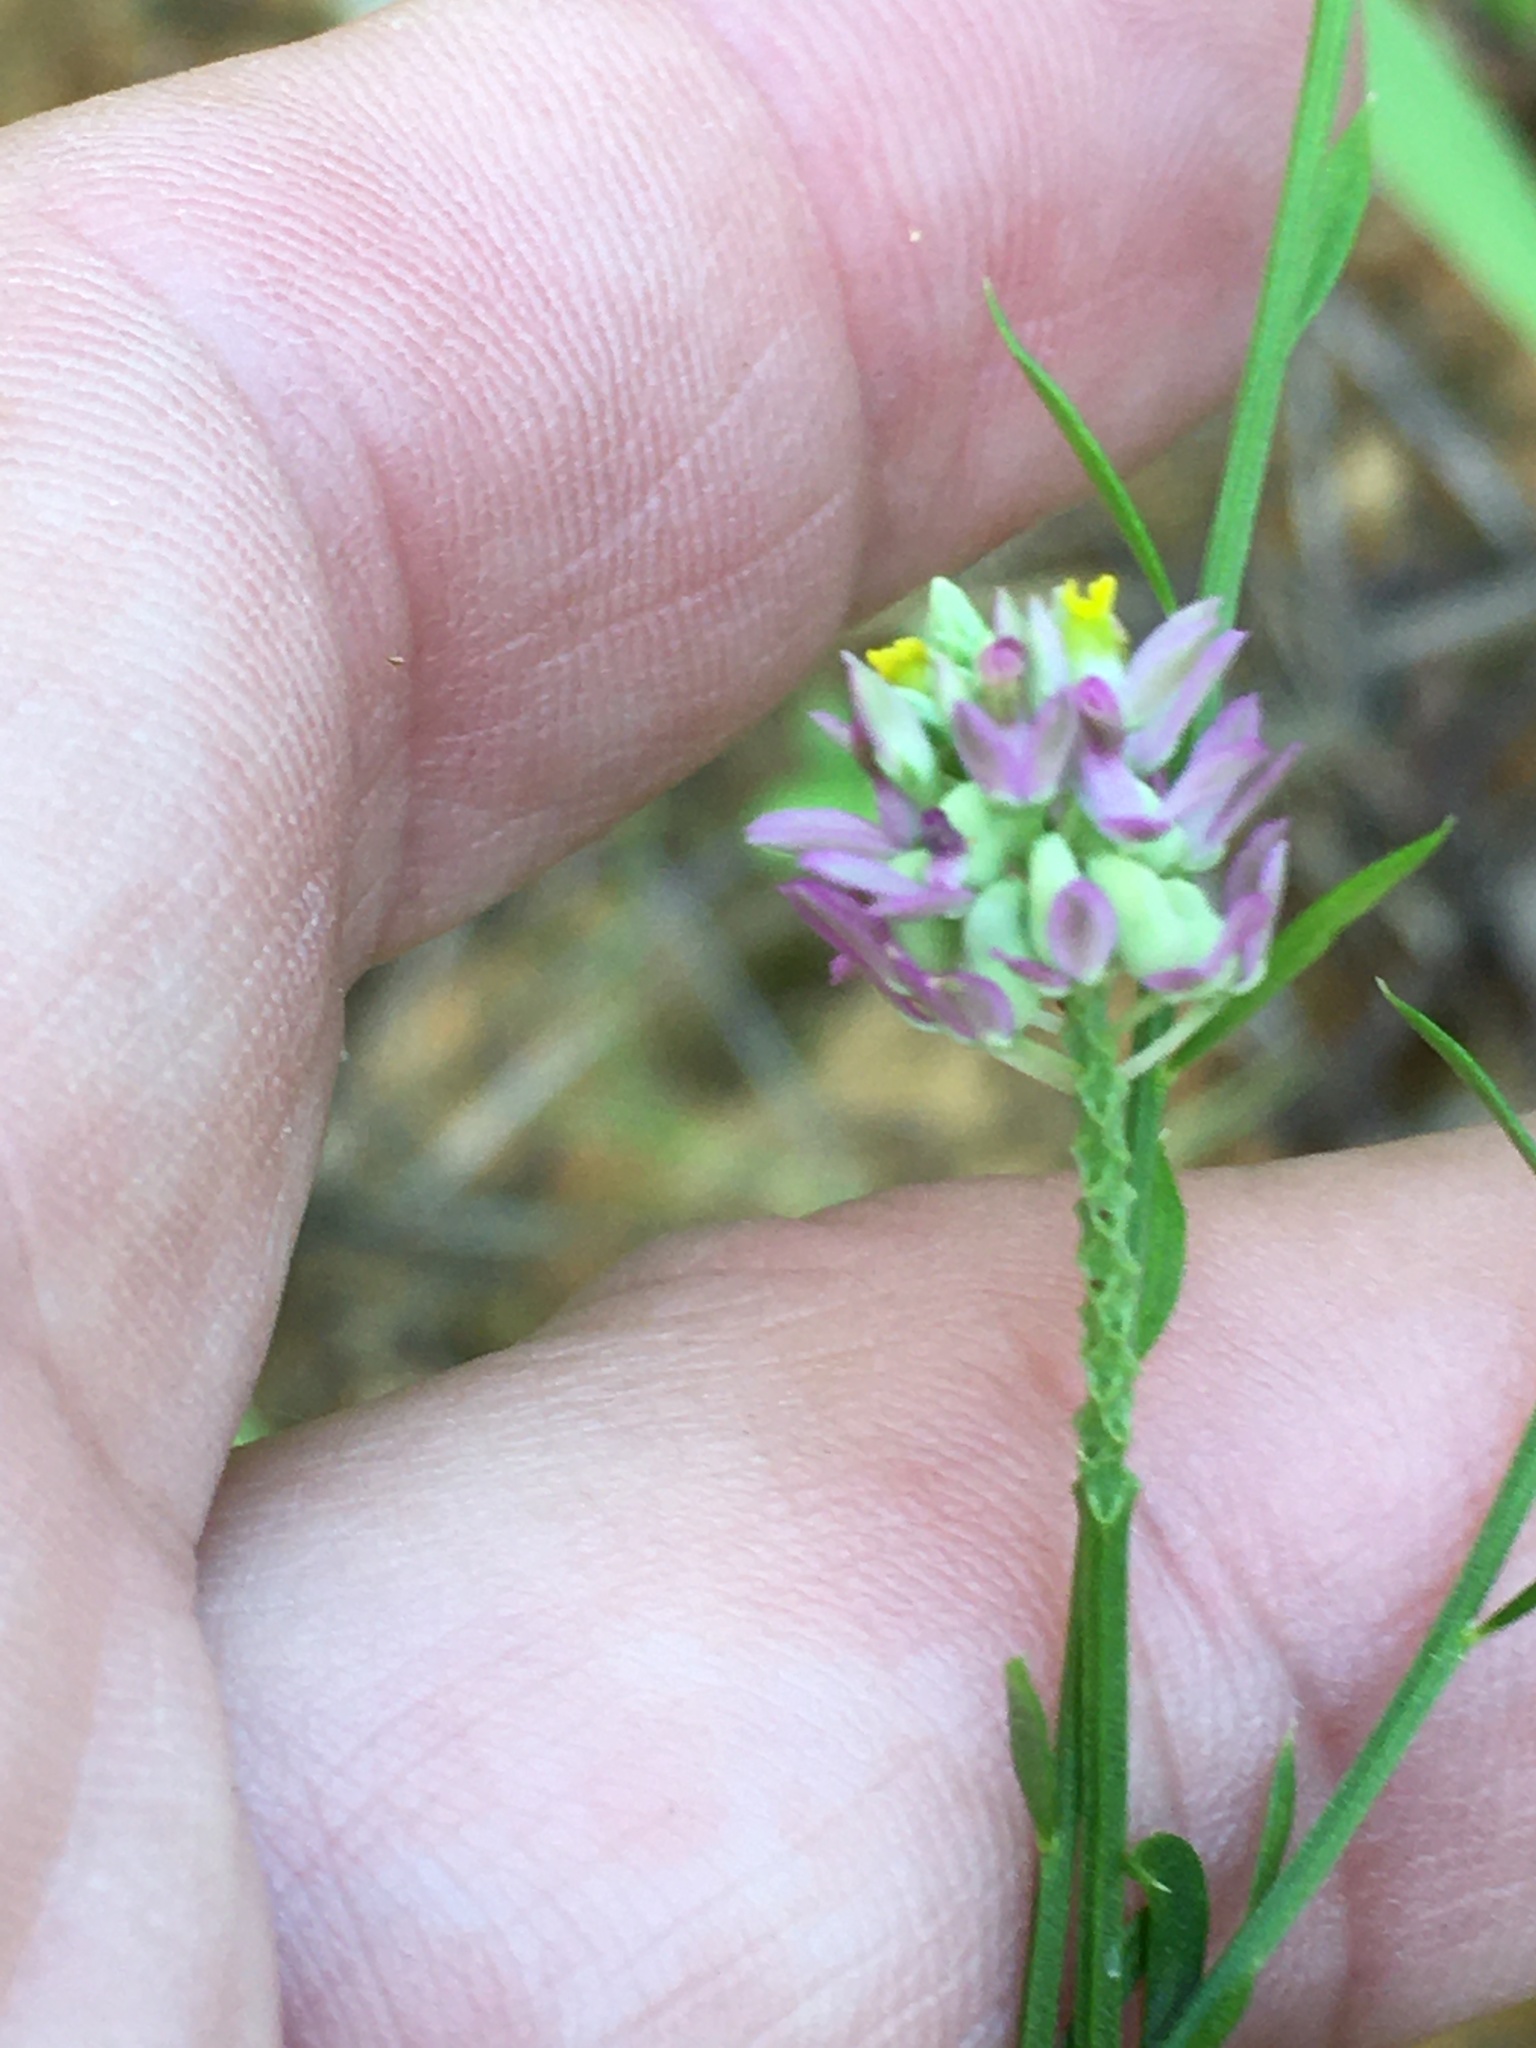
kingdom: Plantae
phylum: Tracheophyta
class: Magnoliopsida
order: Fabales
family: Polygalaceae
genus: Polygala
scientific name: Polygala curtissii
